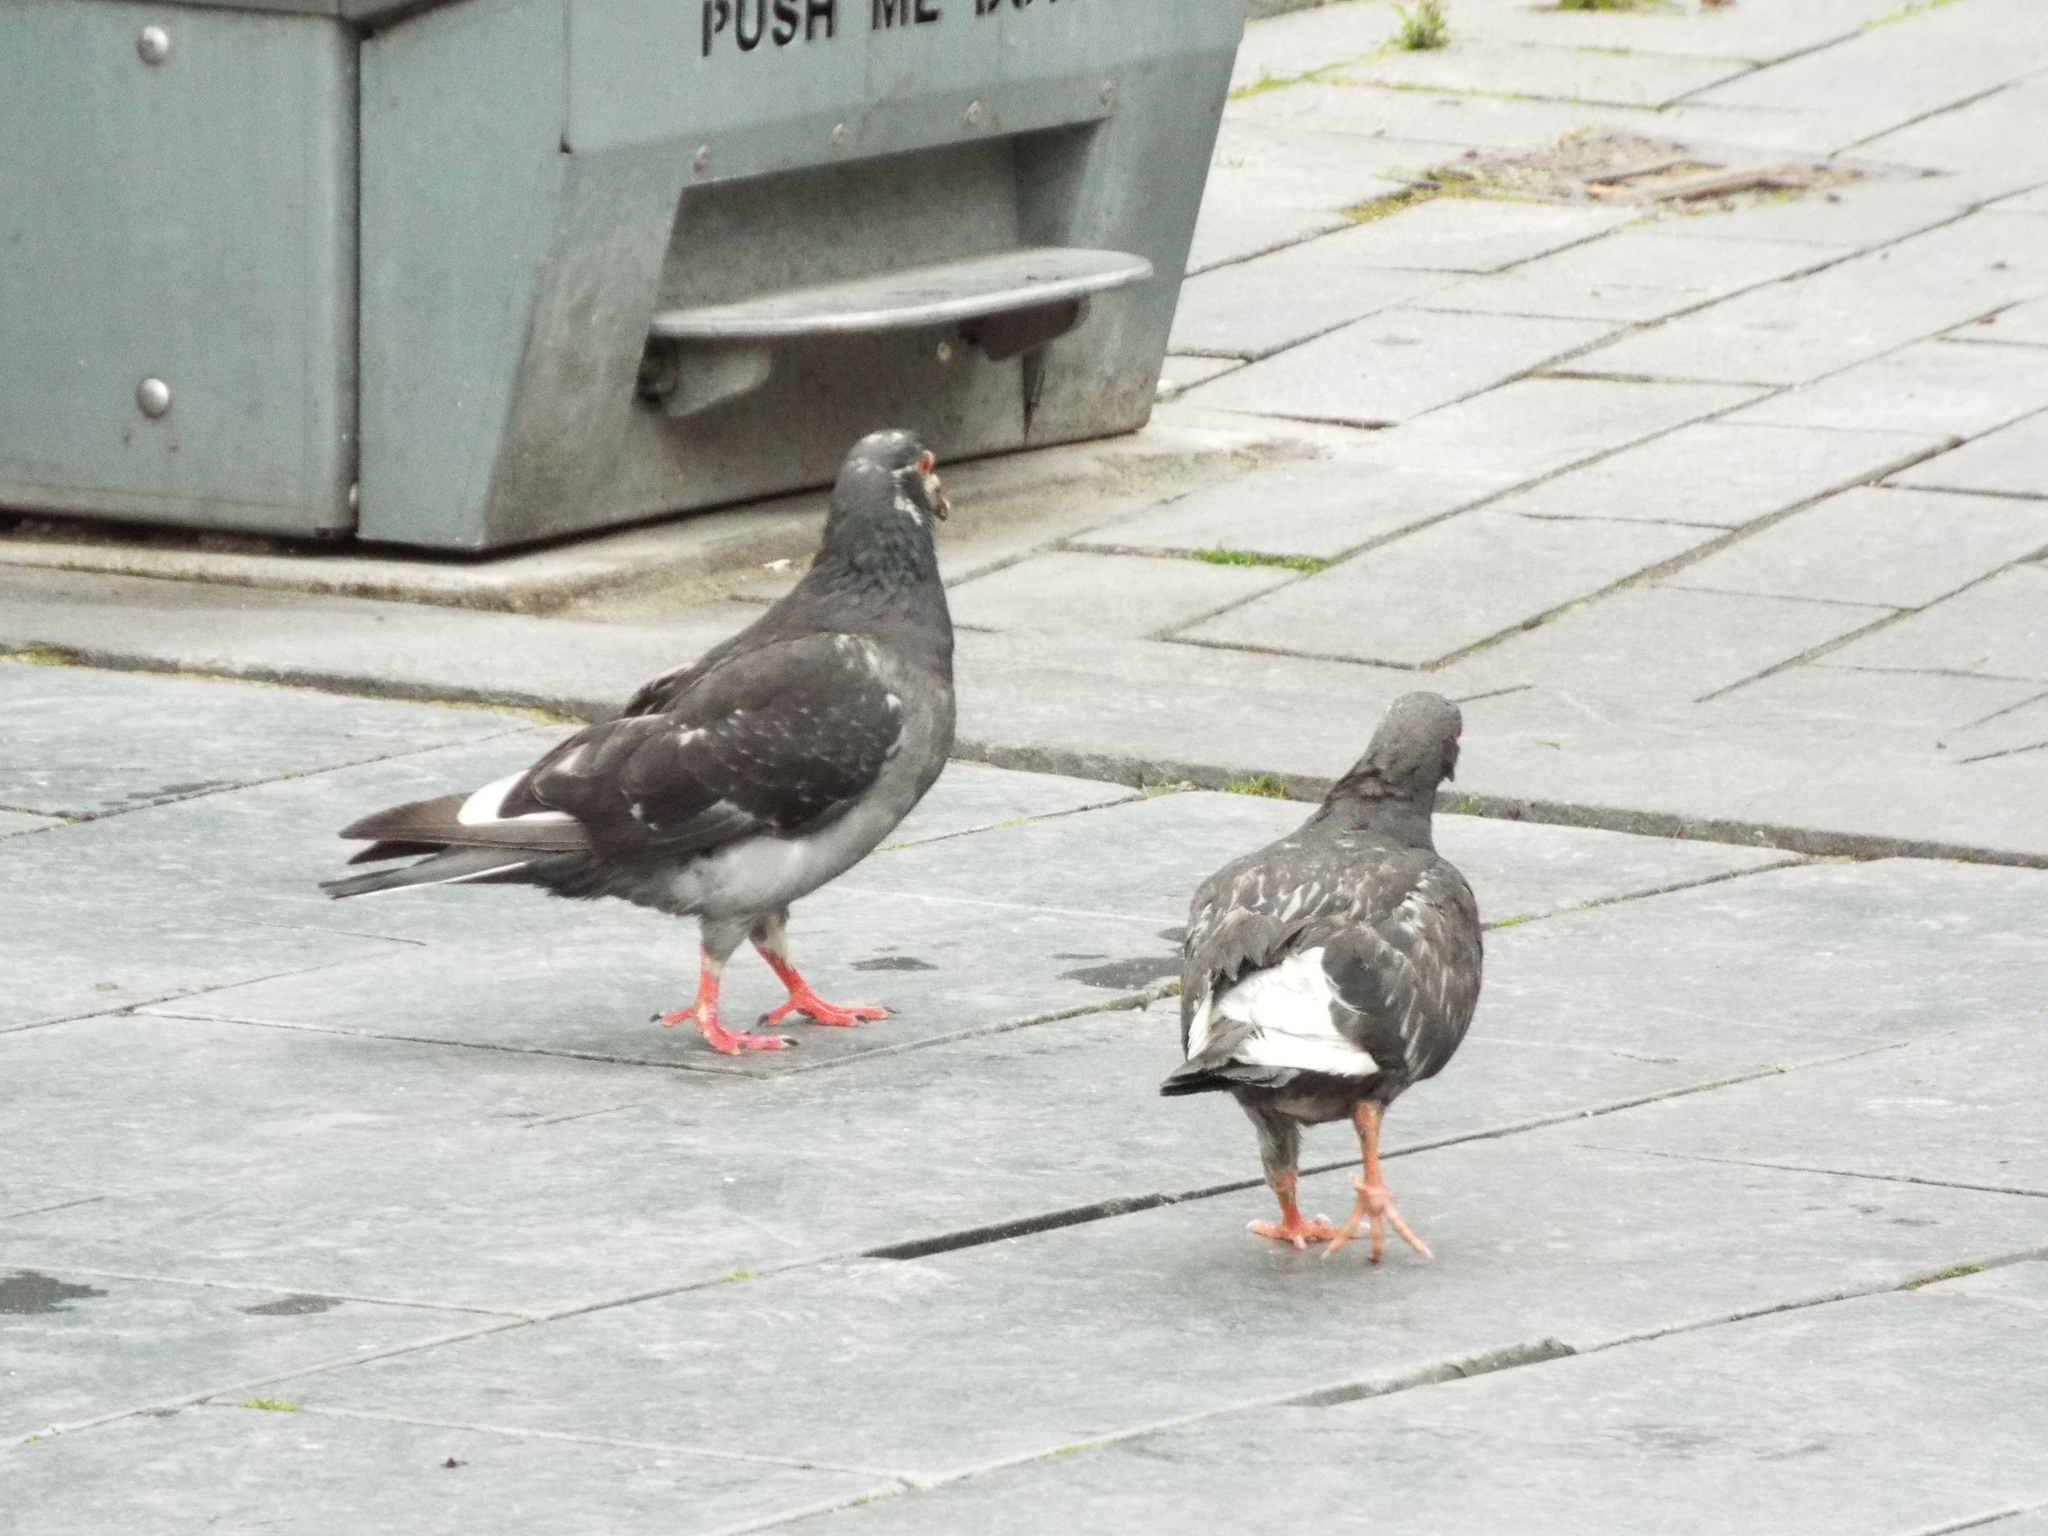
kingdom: Animalia
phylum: Chordata
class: Aves
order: Columbiformes
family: Columbidae
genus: Columba
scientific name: Columba livia
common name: Rock pigeon
